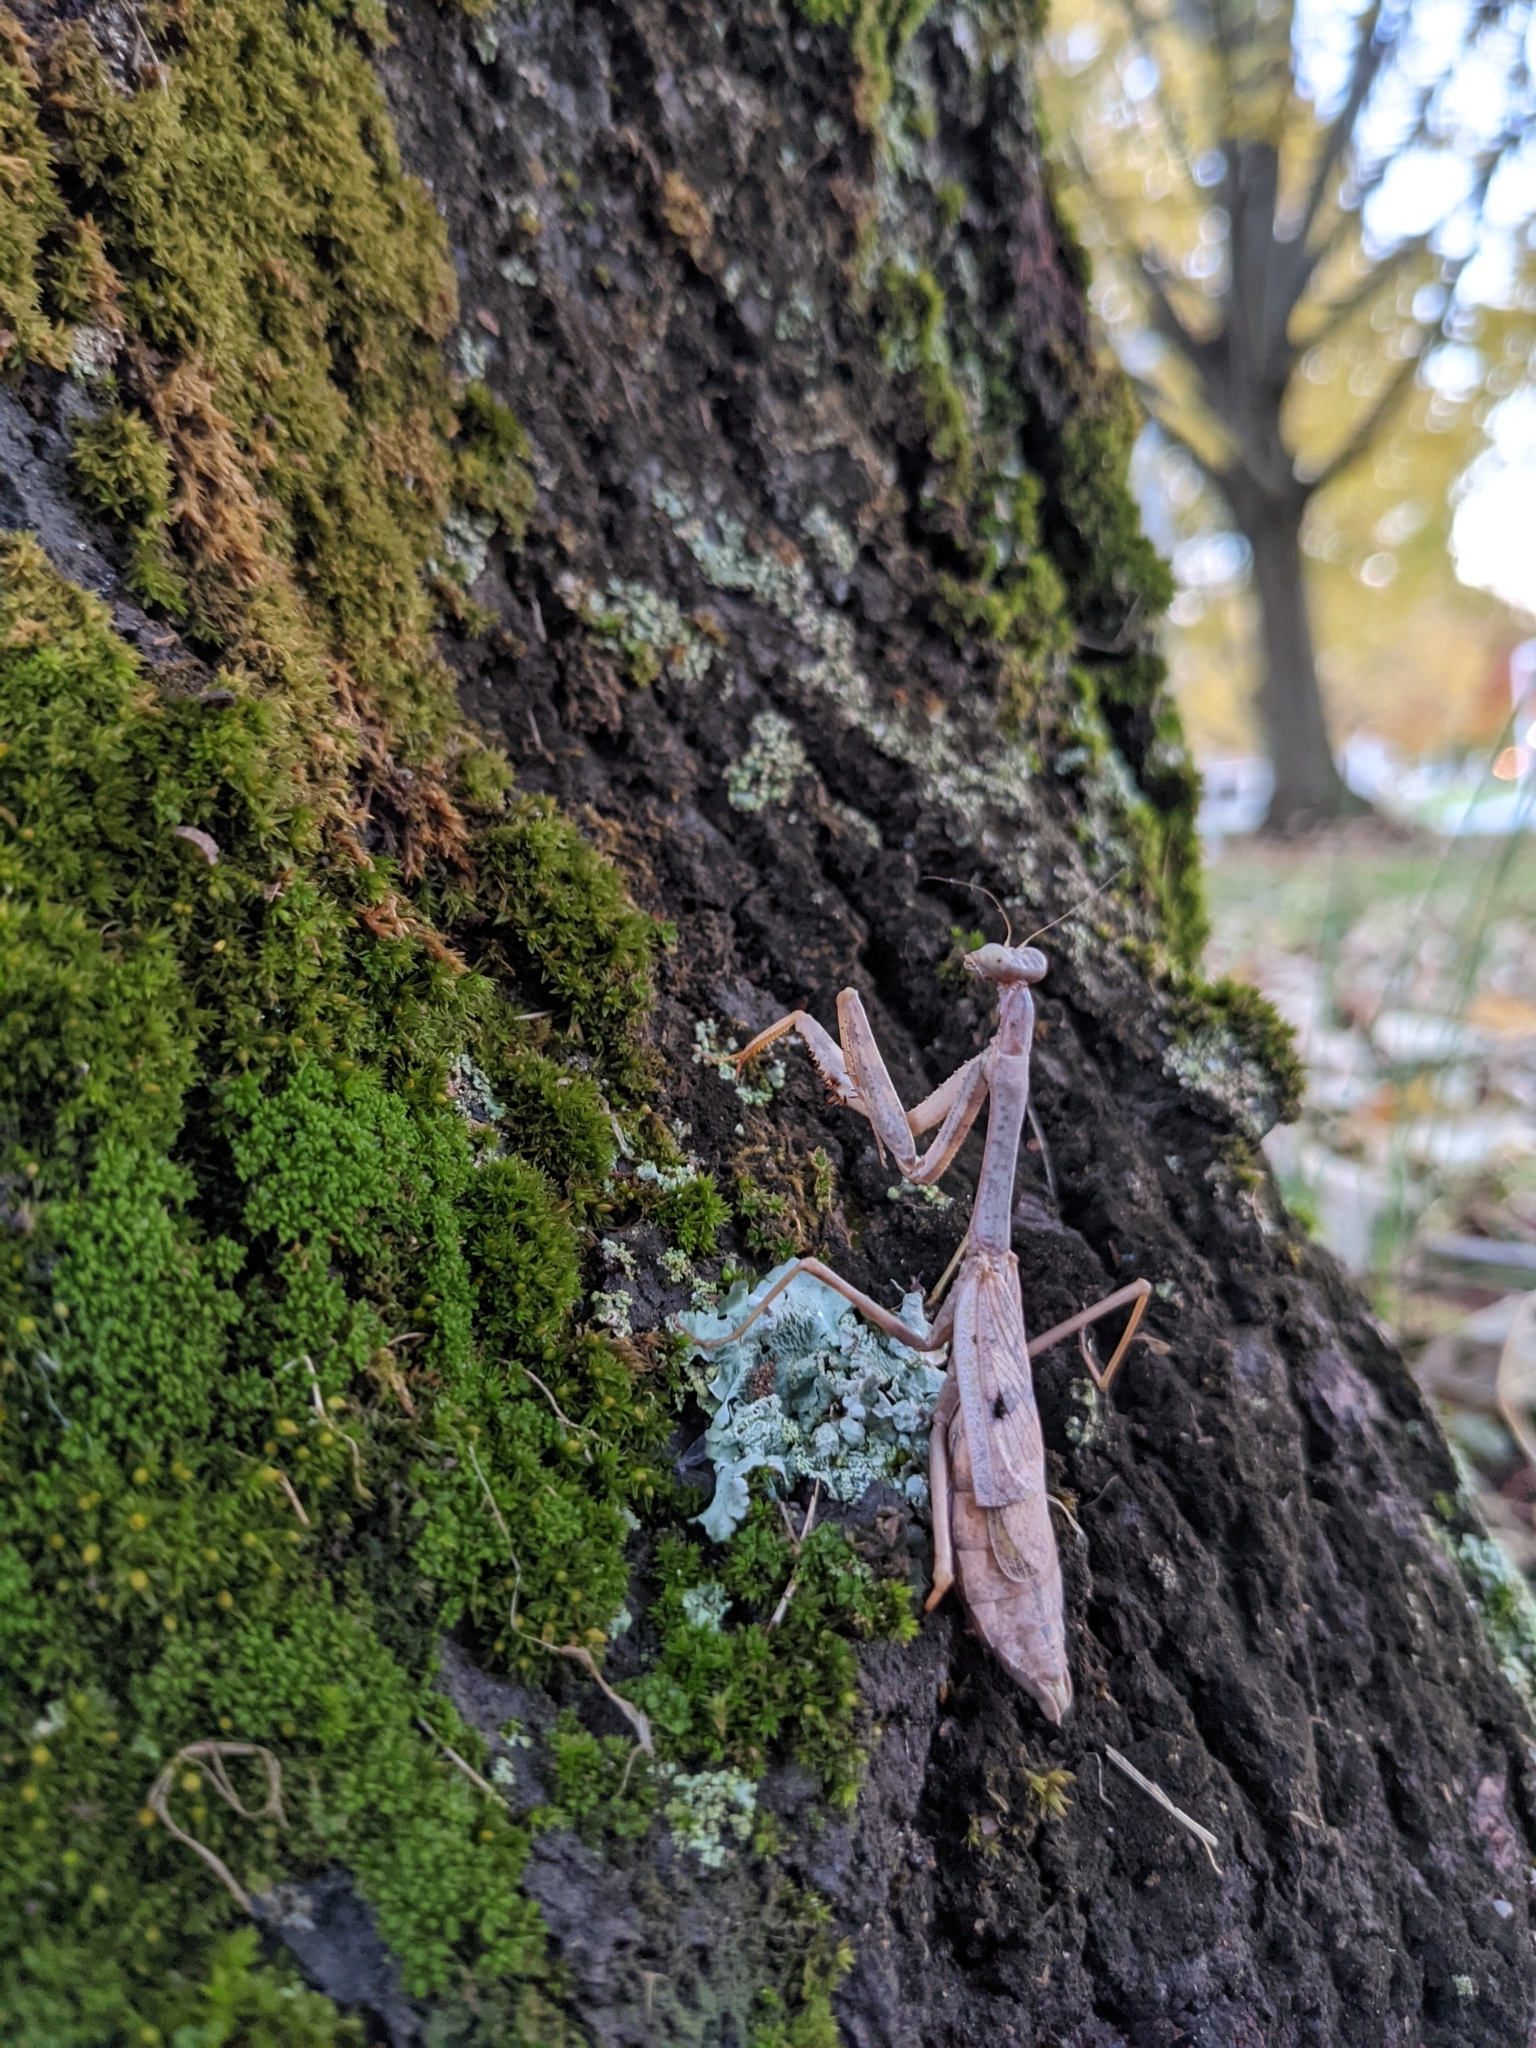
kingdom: Animalia
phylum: Arthropoda
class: Insecta
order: Mantodea
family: Mantidae
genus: Stagmomantis
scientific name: Stagmomantis carolina
